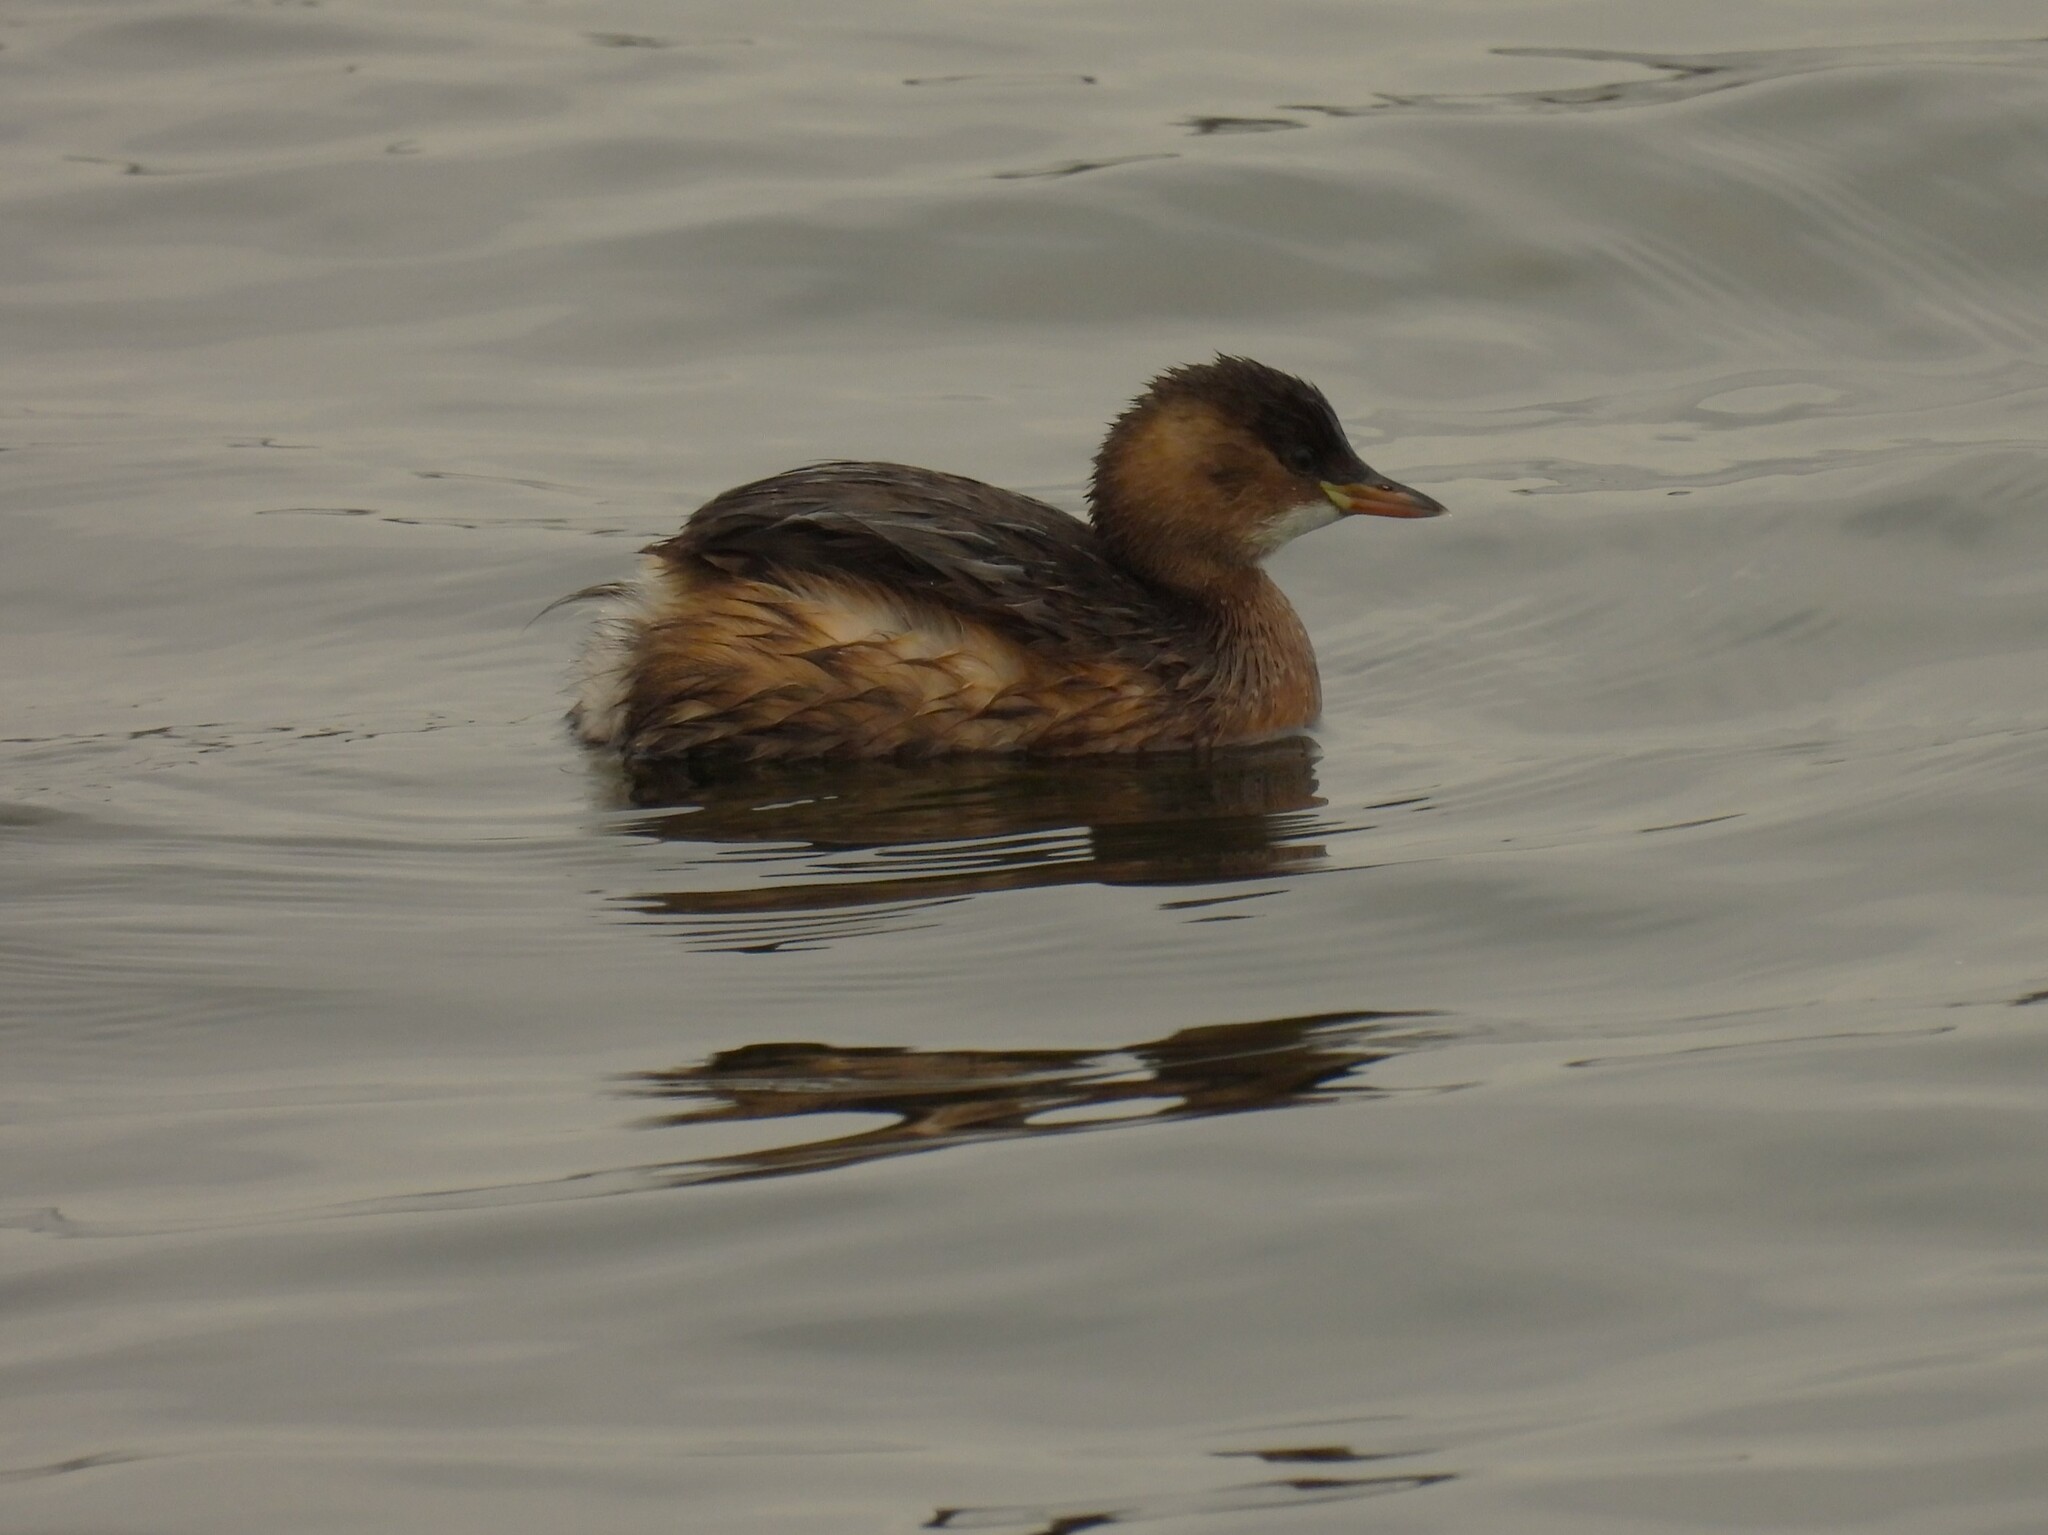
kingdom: Animalia
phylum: Chordata
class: Aves
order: Podicipediformes
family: Podicipedidae
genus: Tachybaptus
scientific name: Tachybaptus ruficollis
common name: Little grebe
